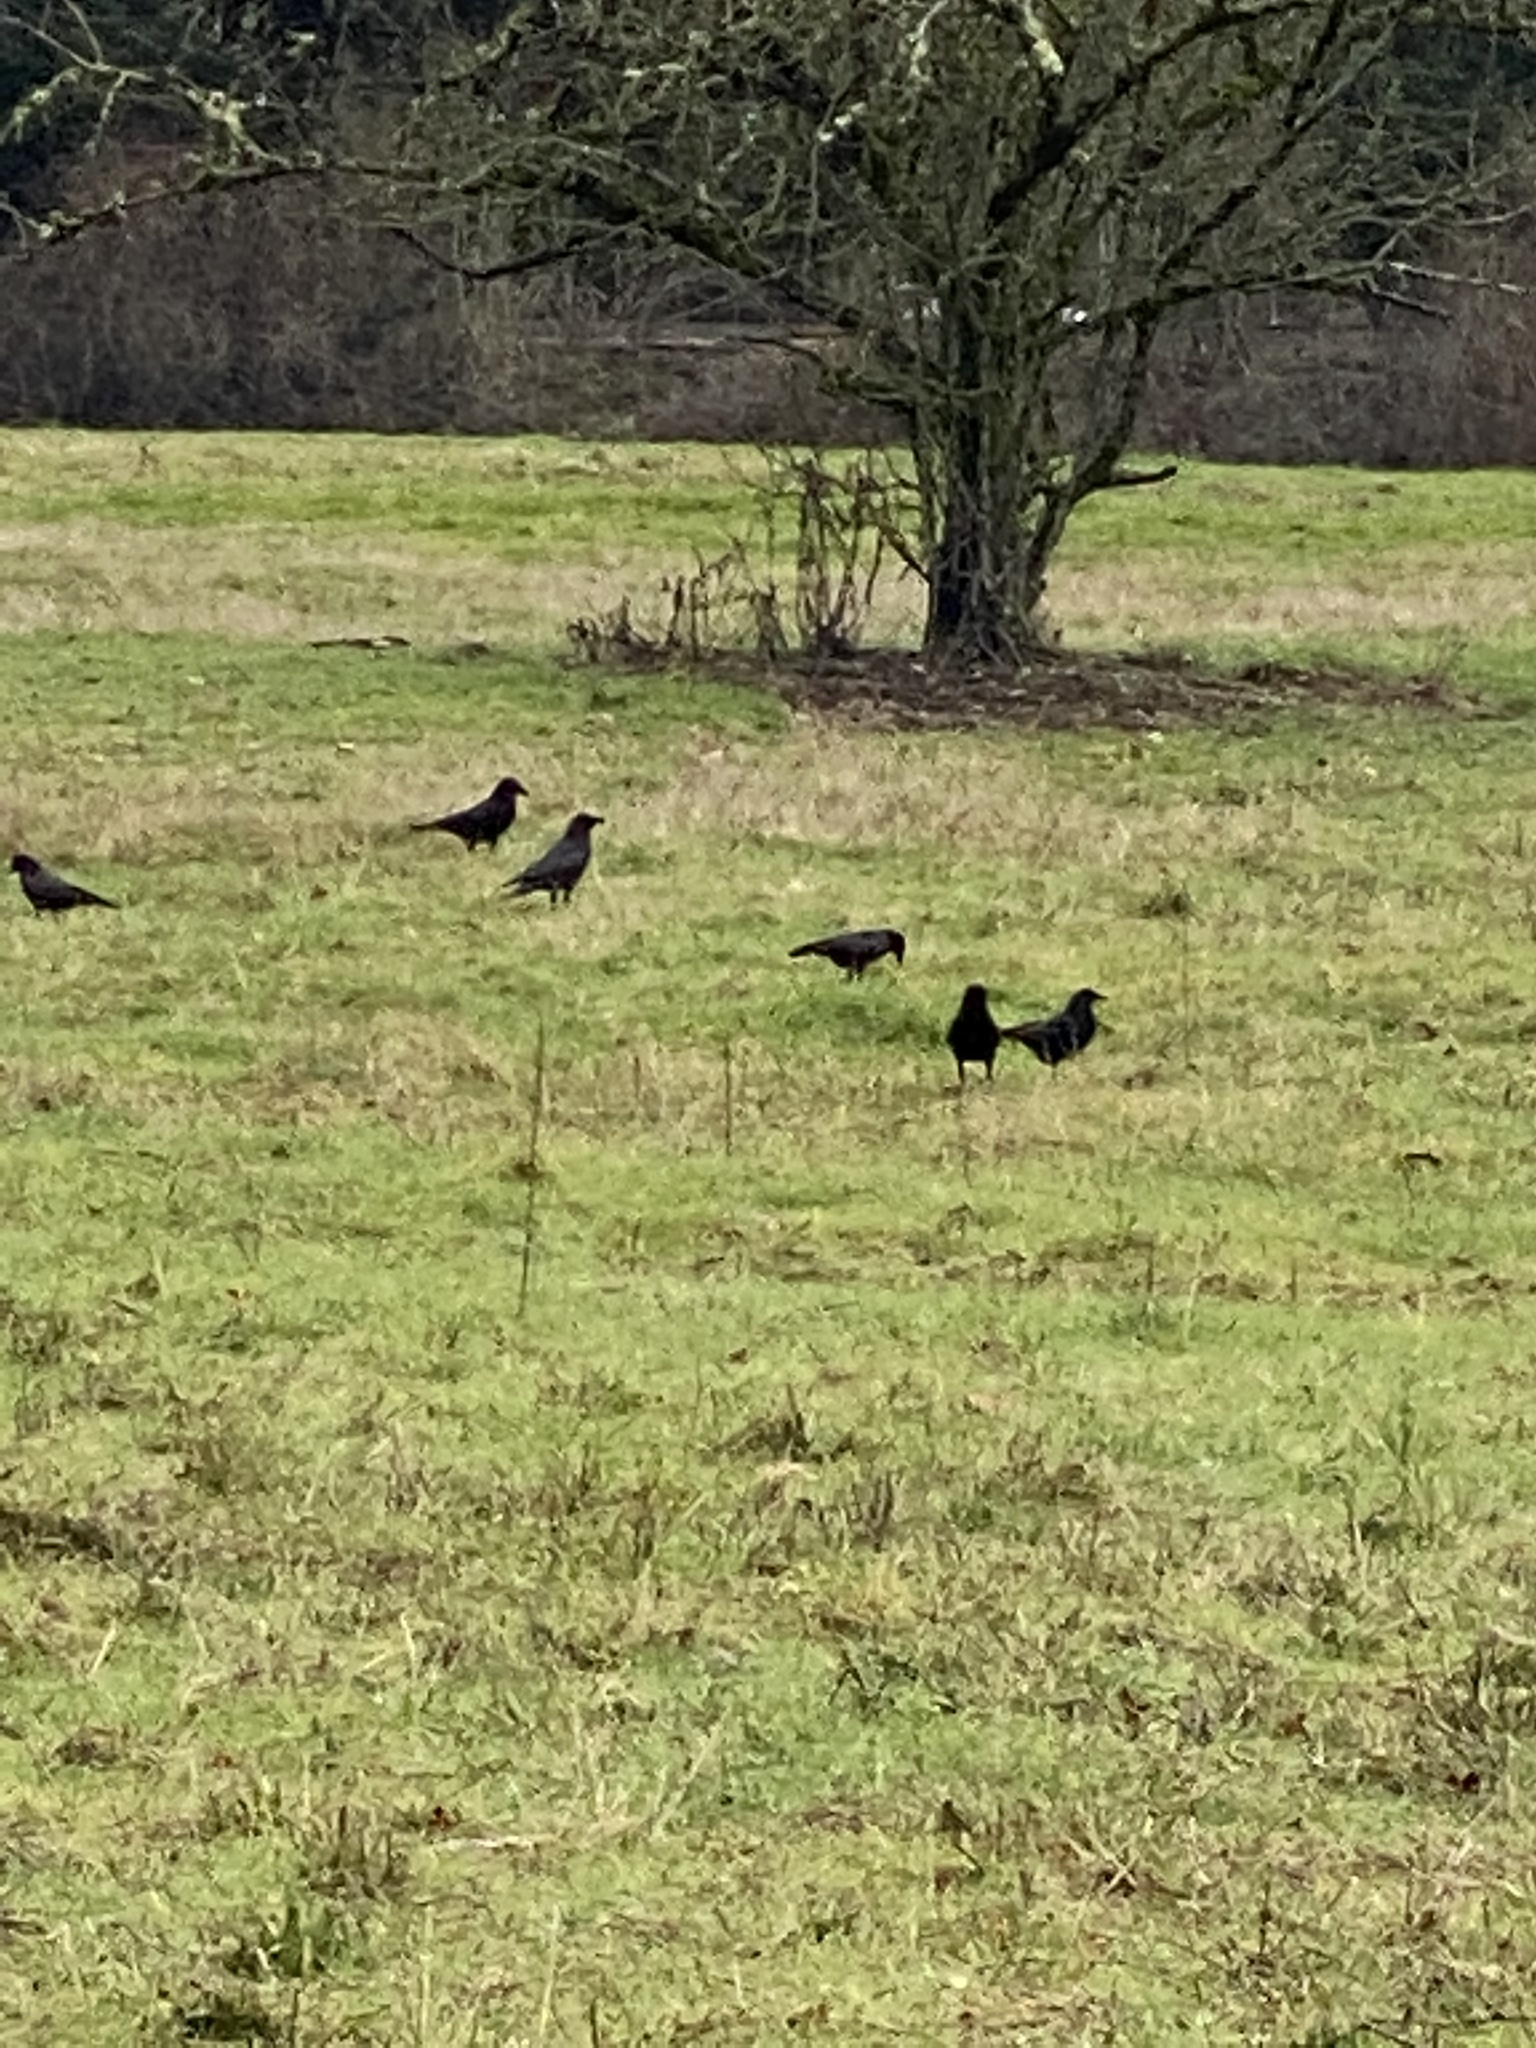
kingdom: Animalia
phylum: Chordata
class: Aves
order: Passeriformes
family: Corvidae
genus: Corvus
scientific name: Corvus brachyrhynchos
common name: American crow
